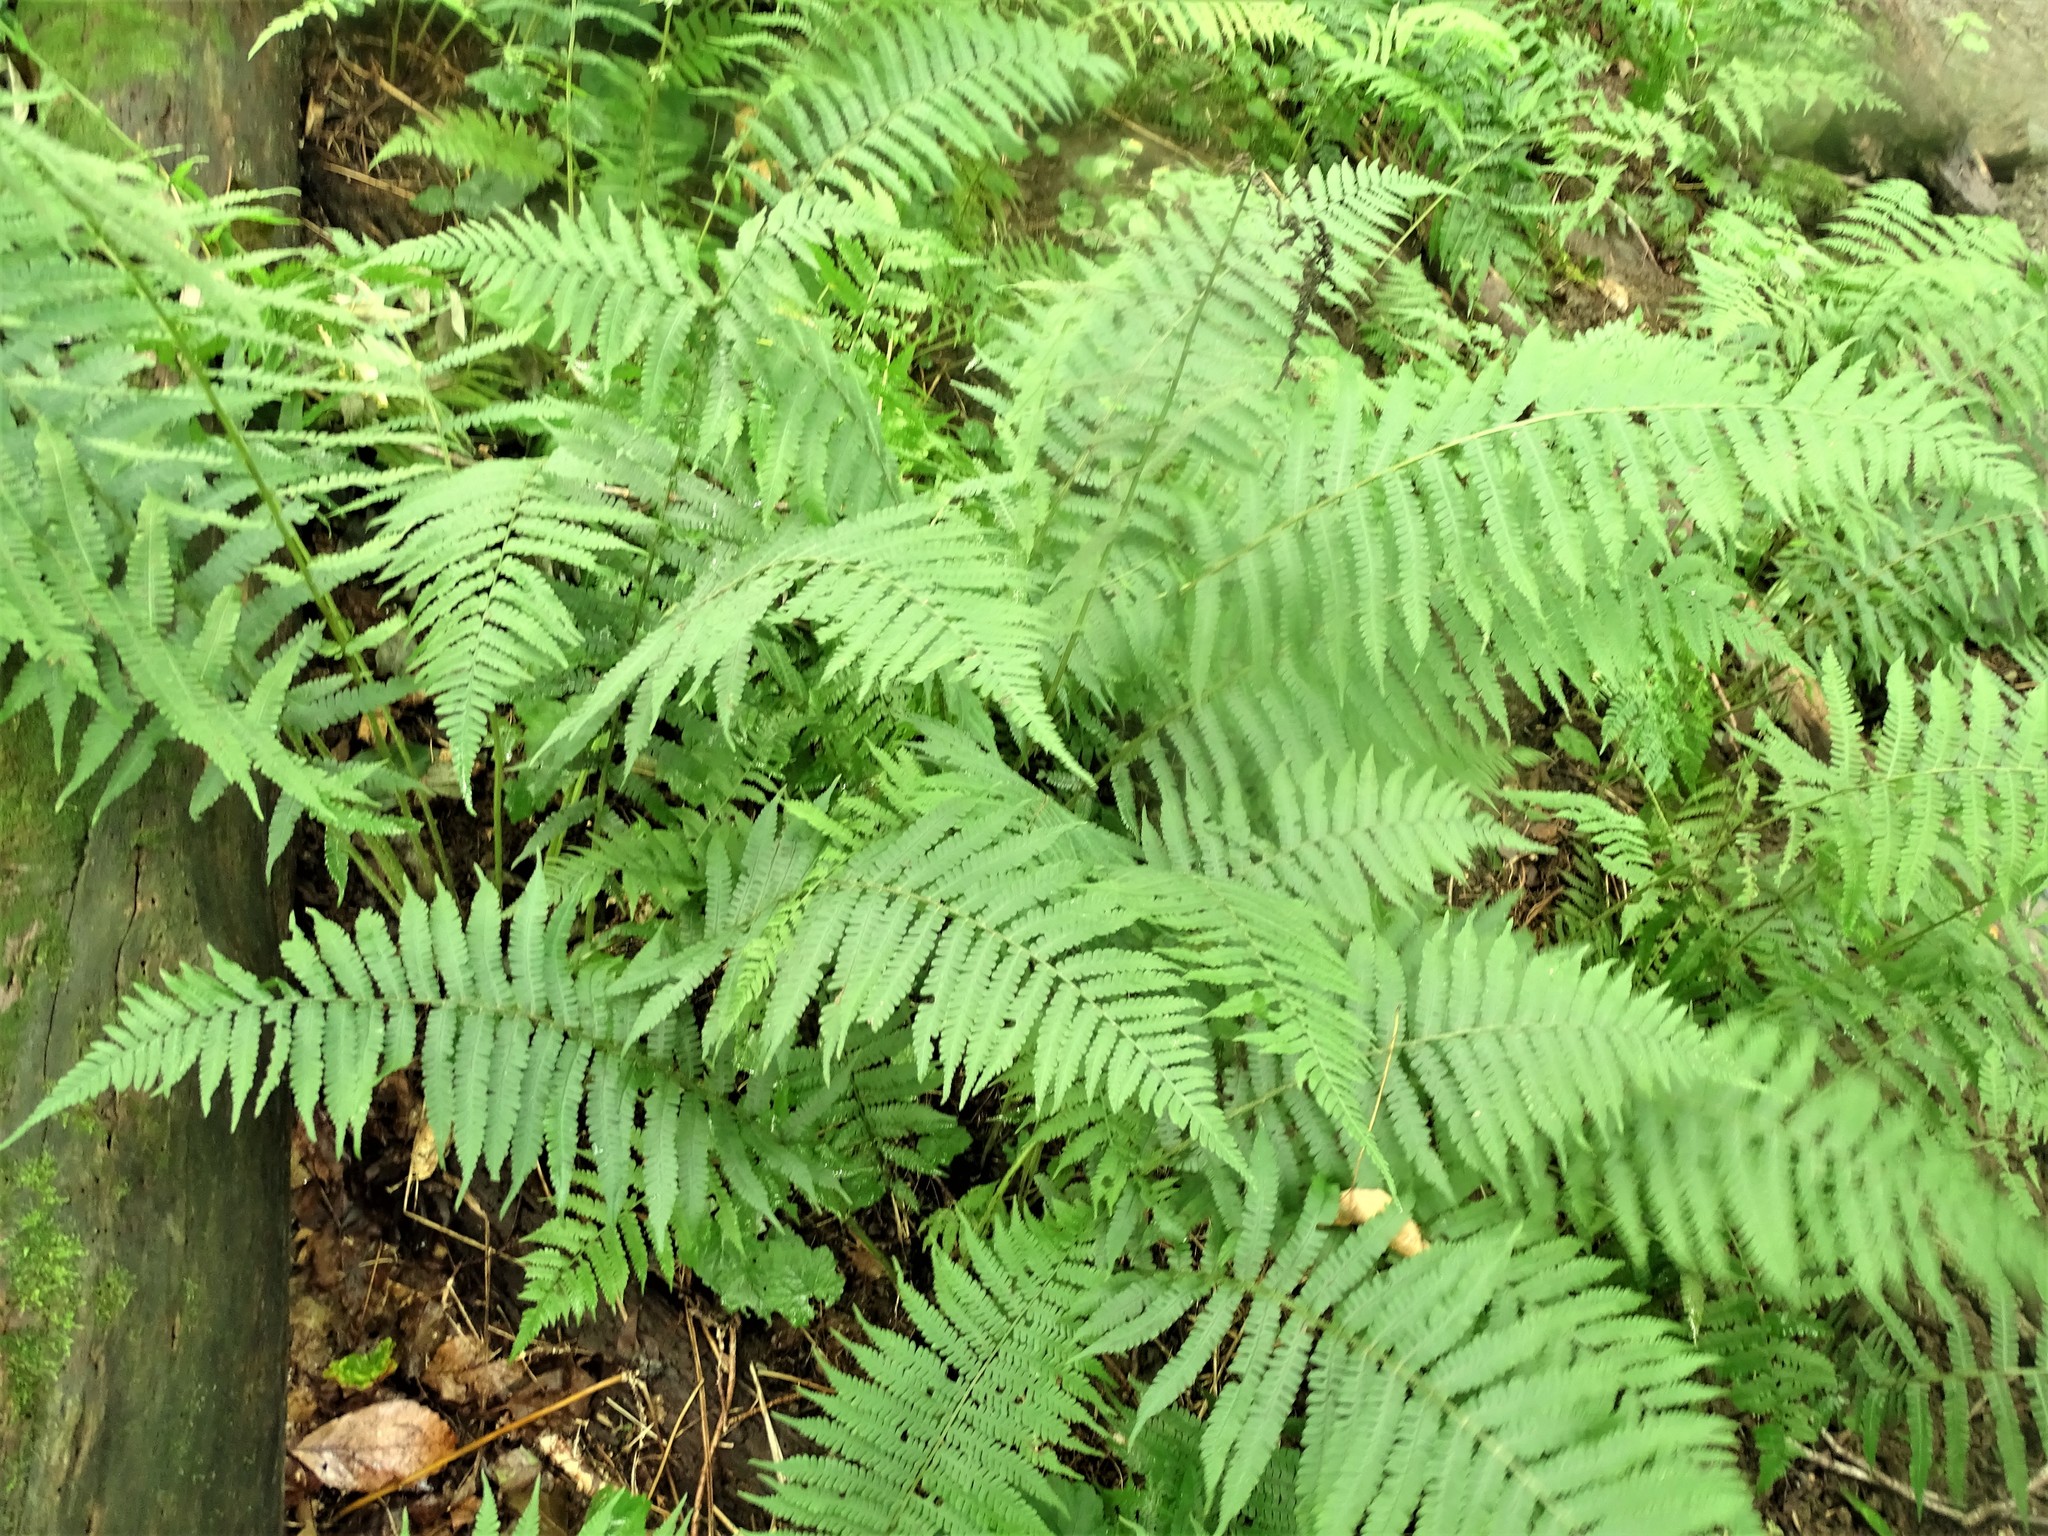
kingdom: Plantae
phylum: Tracheophyta
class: Polypodiopsida
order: Polypodiales
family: Athyriaceae
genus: Deparia
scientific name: Deparia acrostichoides
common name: Silver false spleenwort
